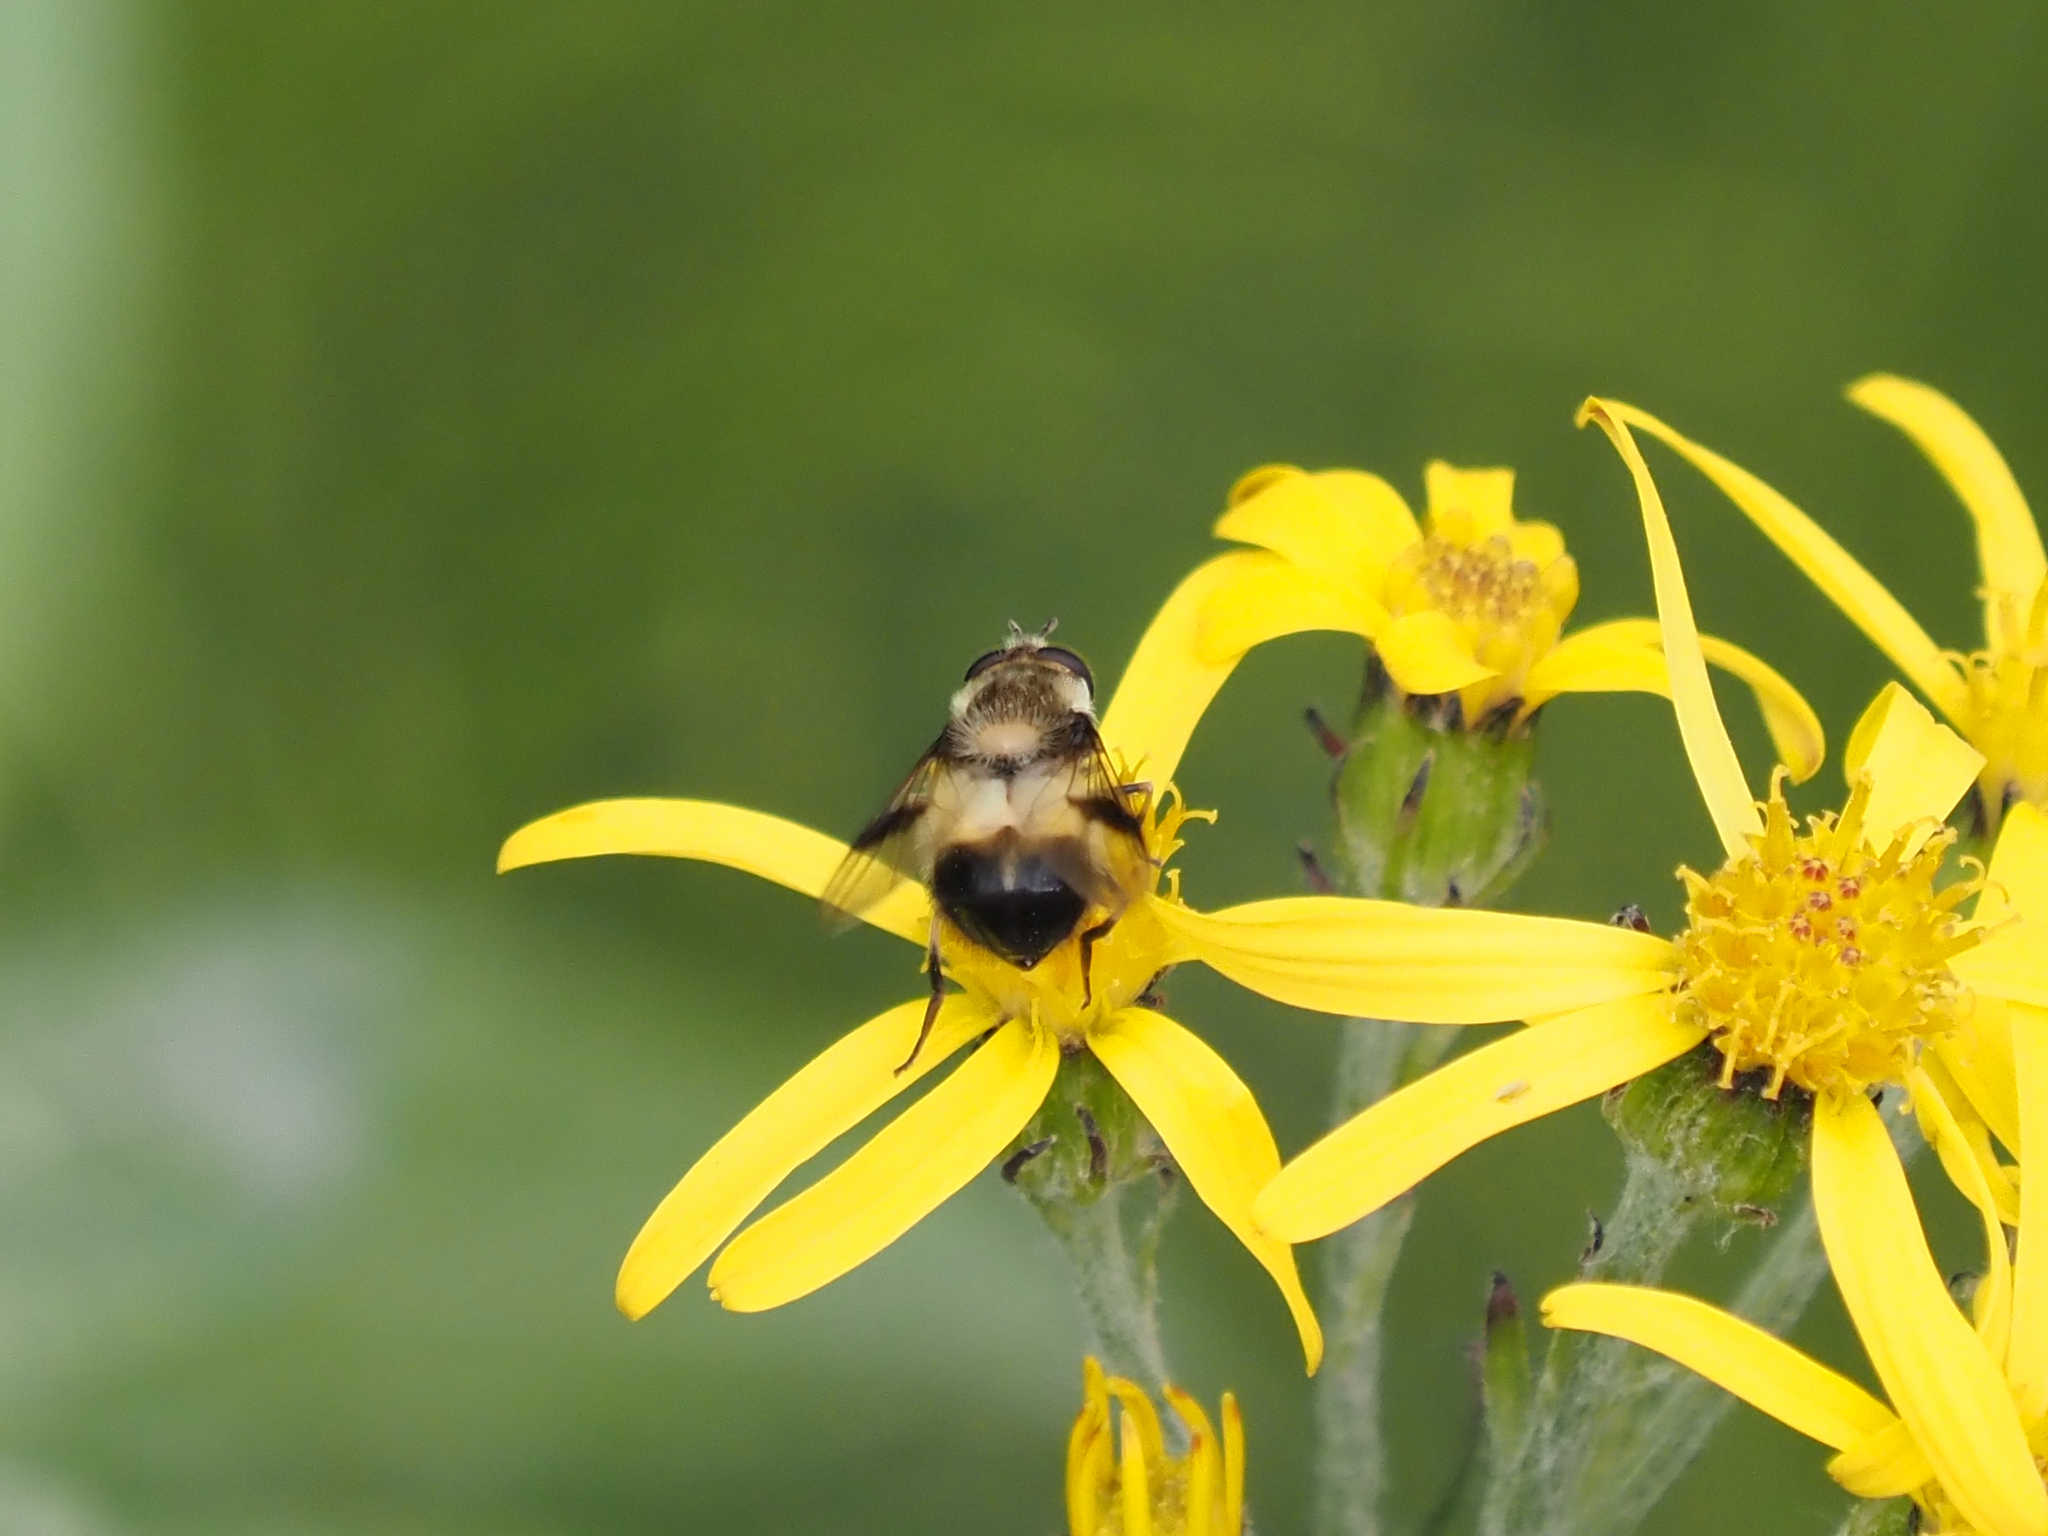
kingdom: Animalia
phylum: Arthropoda
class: Insecta
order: Diptera
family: Syrphidae
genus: Leucozona
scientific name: Leucozona americana
